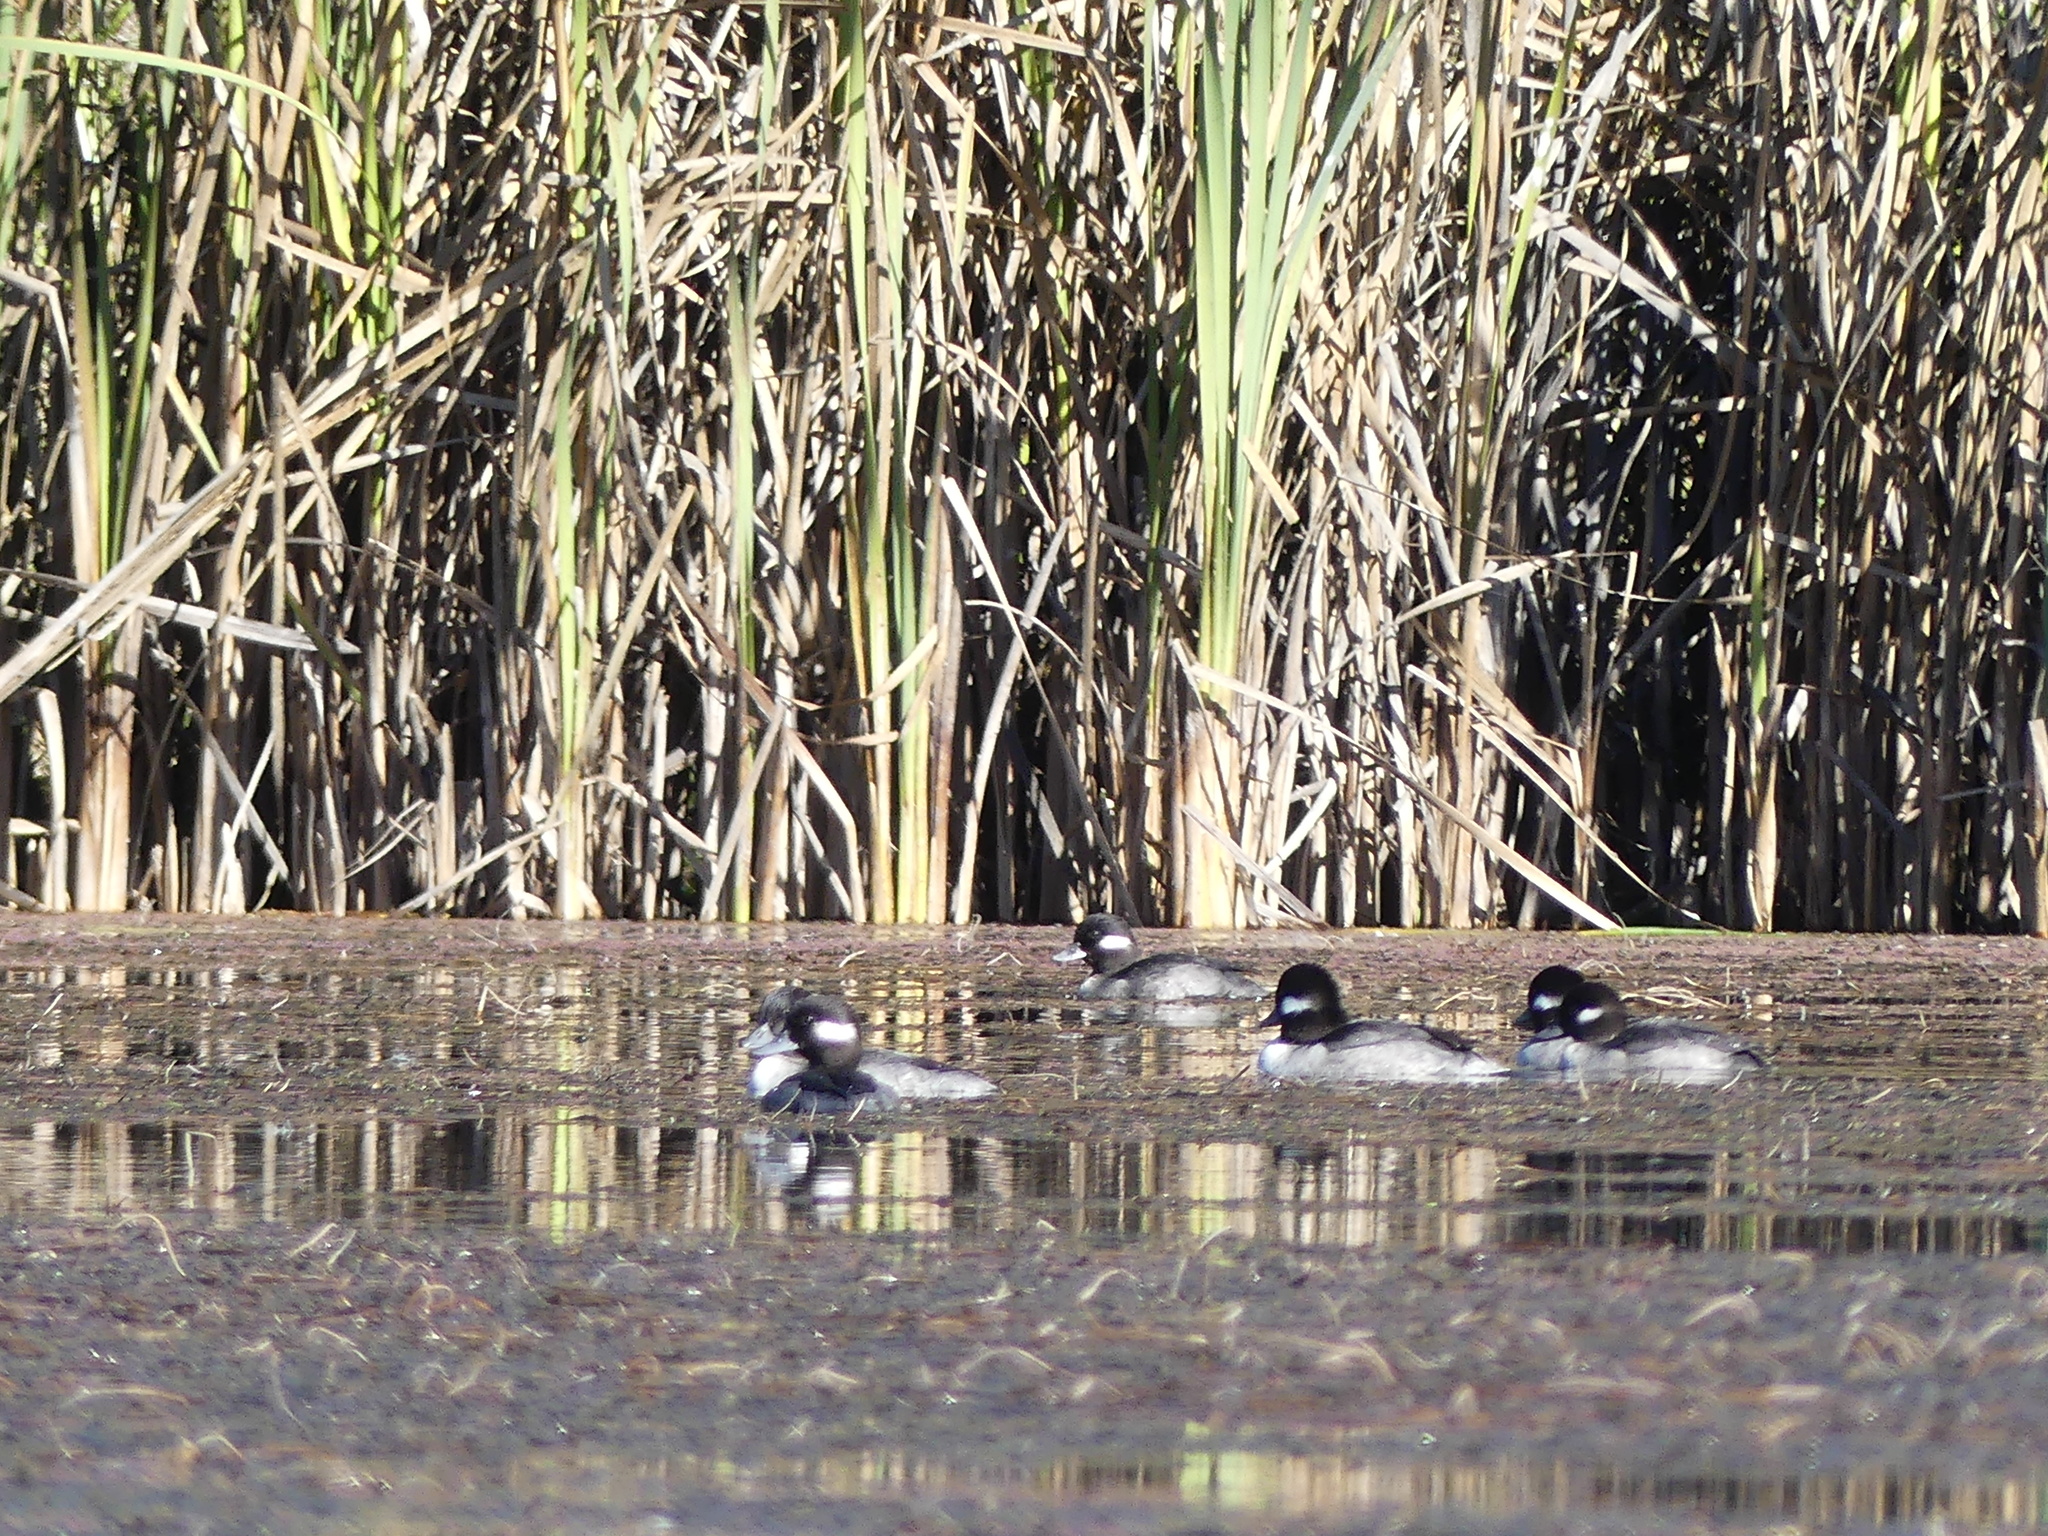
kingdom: Animalia
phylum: Chordata
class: Aves
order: Anseriformes
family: Anatidae
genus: Bucephala
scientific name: Bucephala albeola
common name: Bufflehead
